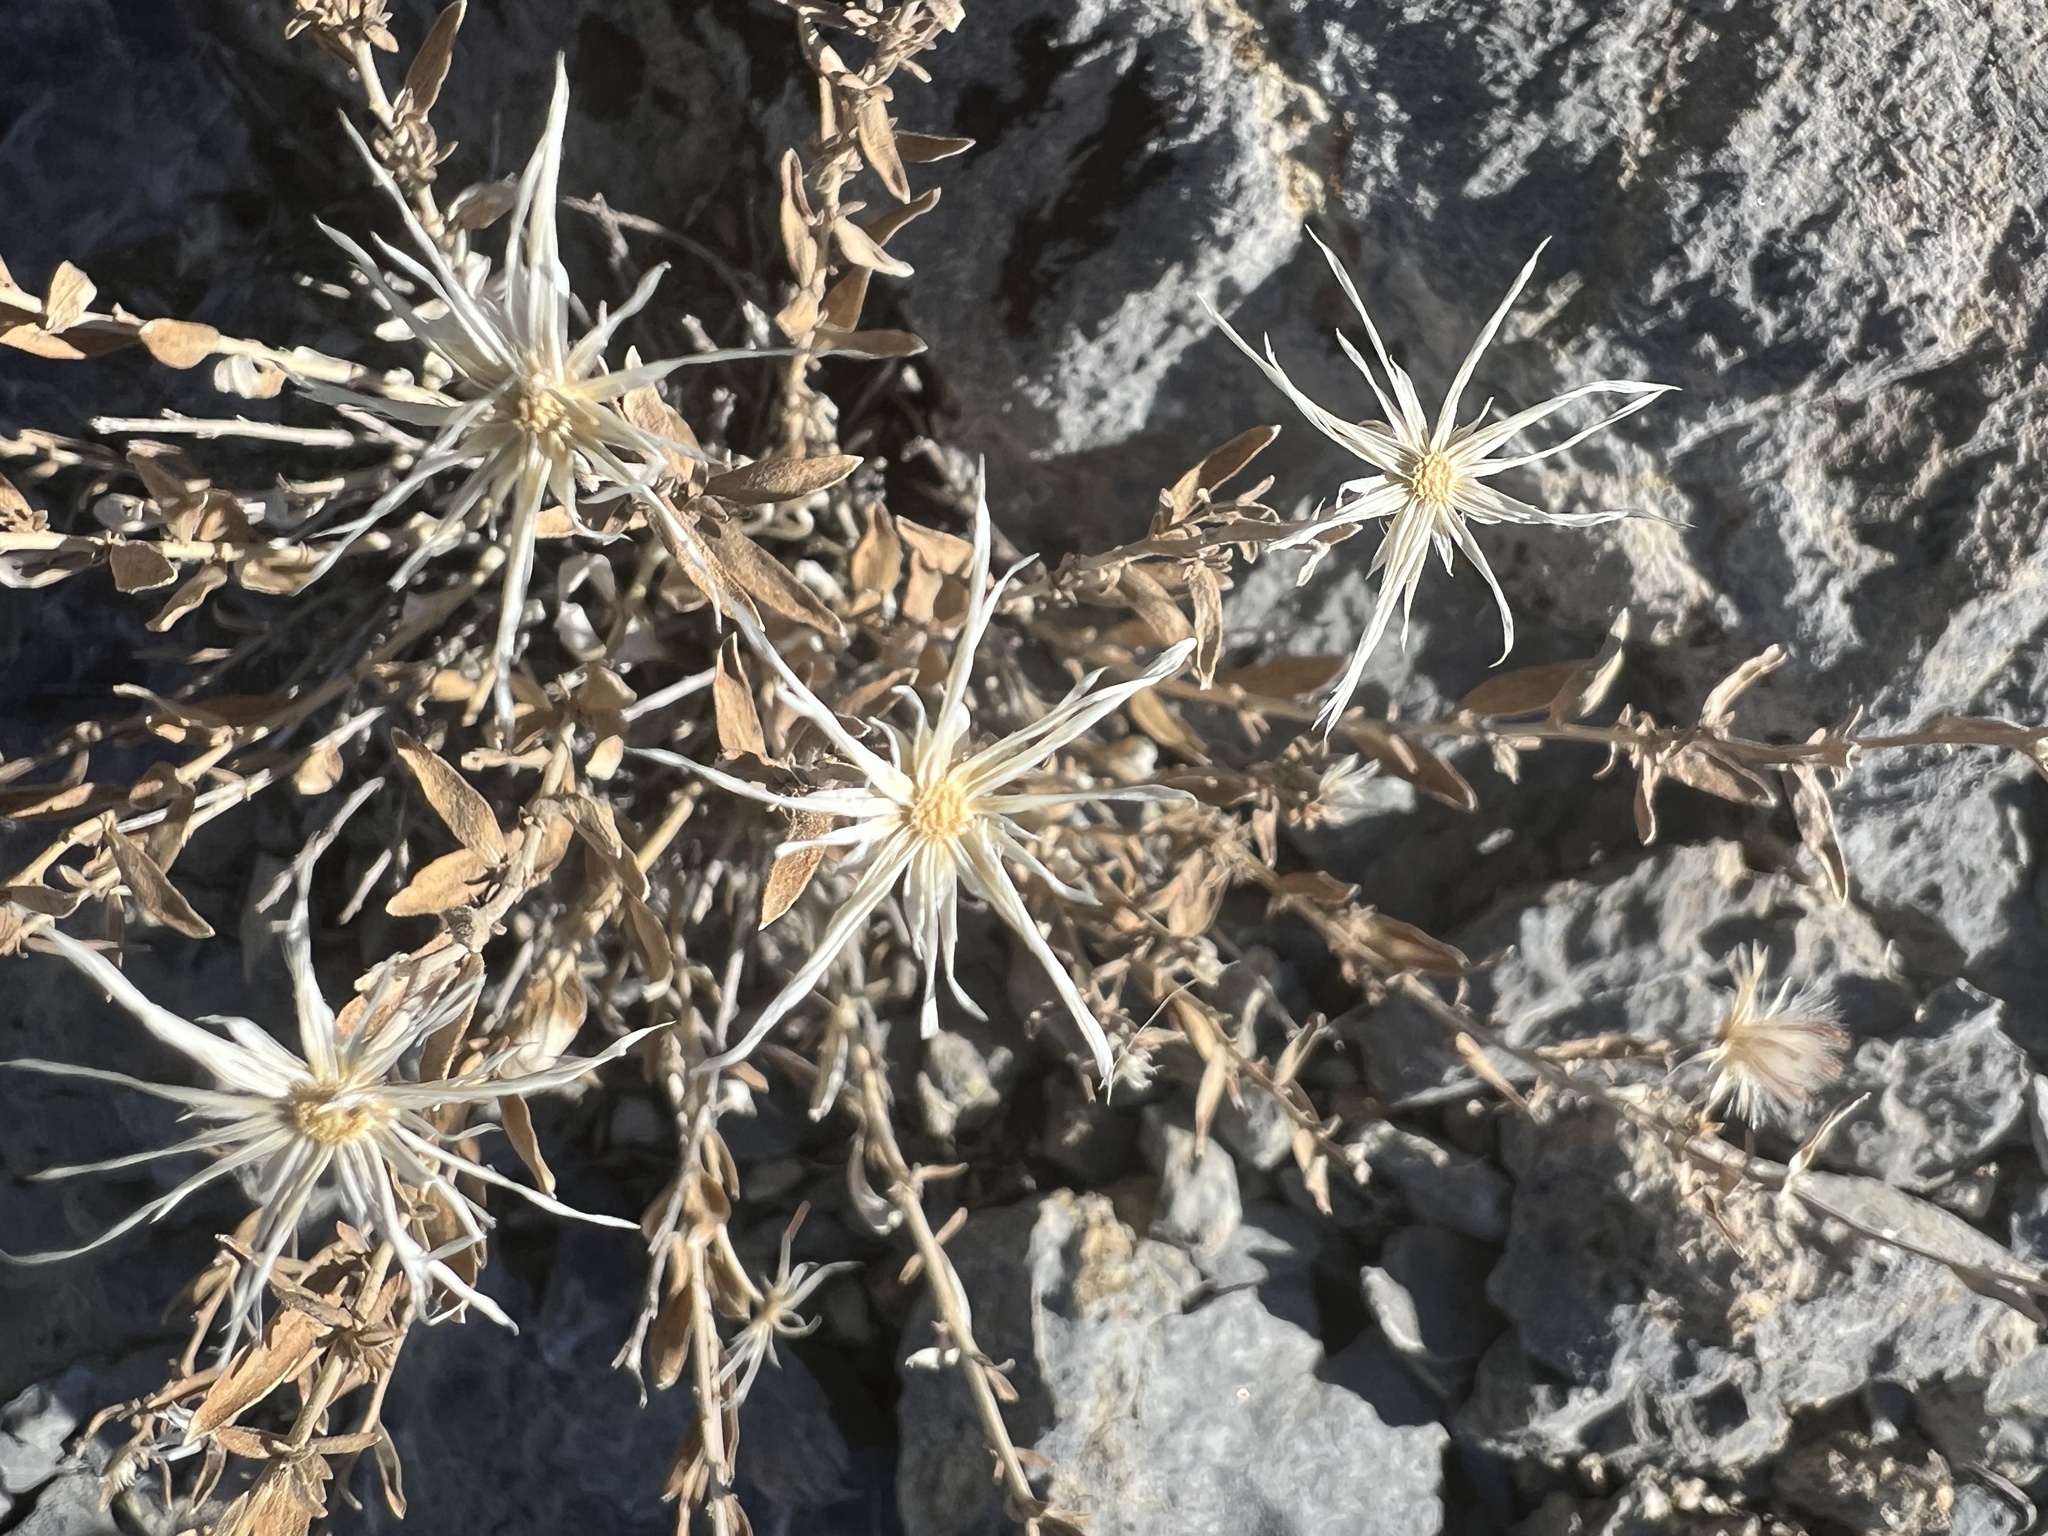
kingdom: Plantae
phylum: Tracheophyta
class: Magnoliopsida
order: Asterales
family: Asteraceae
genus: Brickellia
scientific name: Brickellia oblongifolia
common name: Mojave brickellbush
